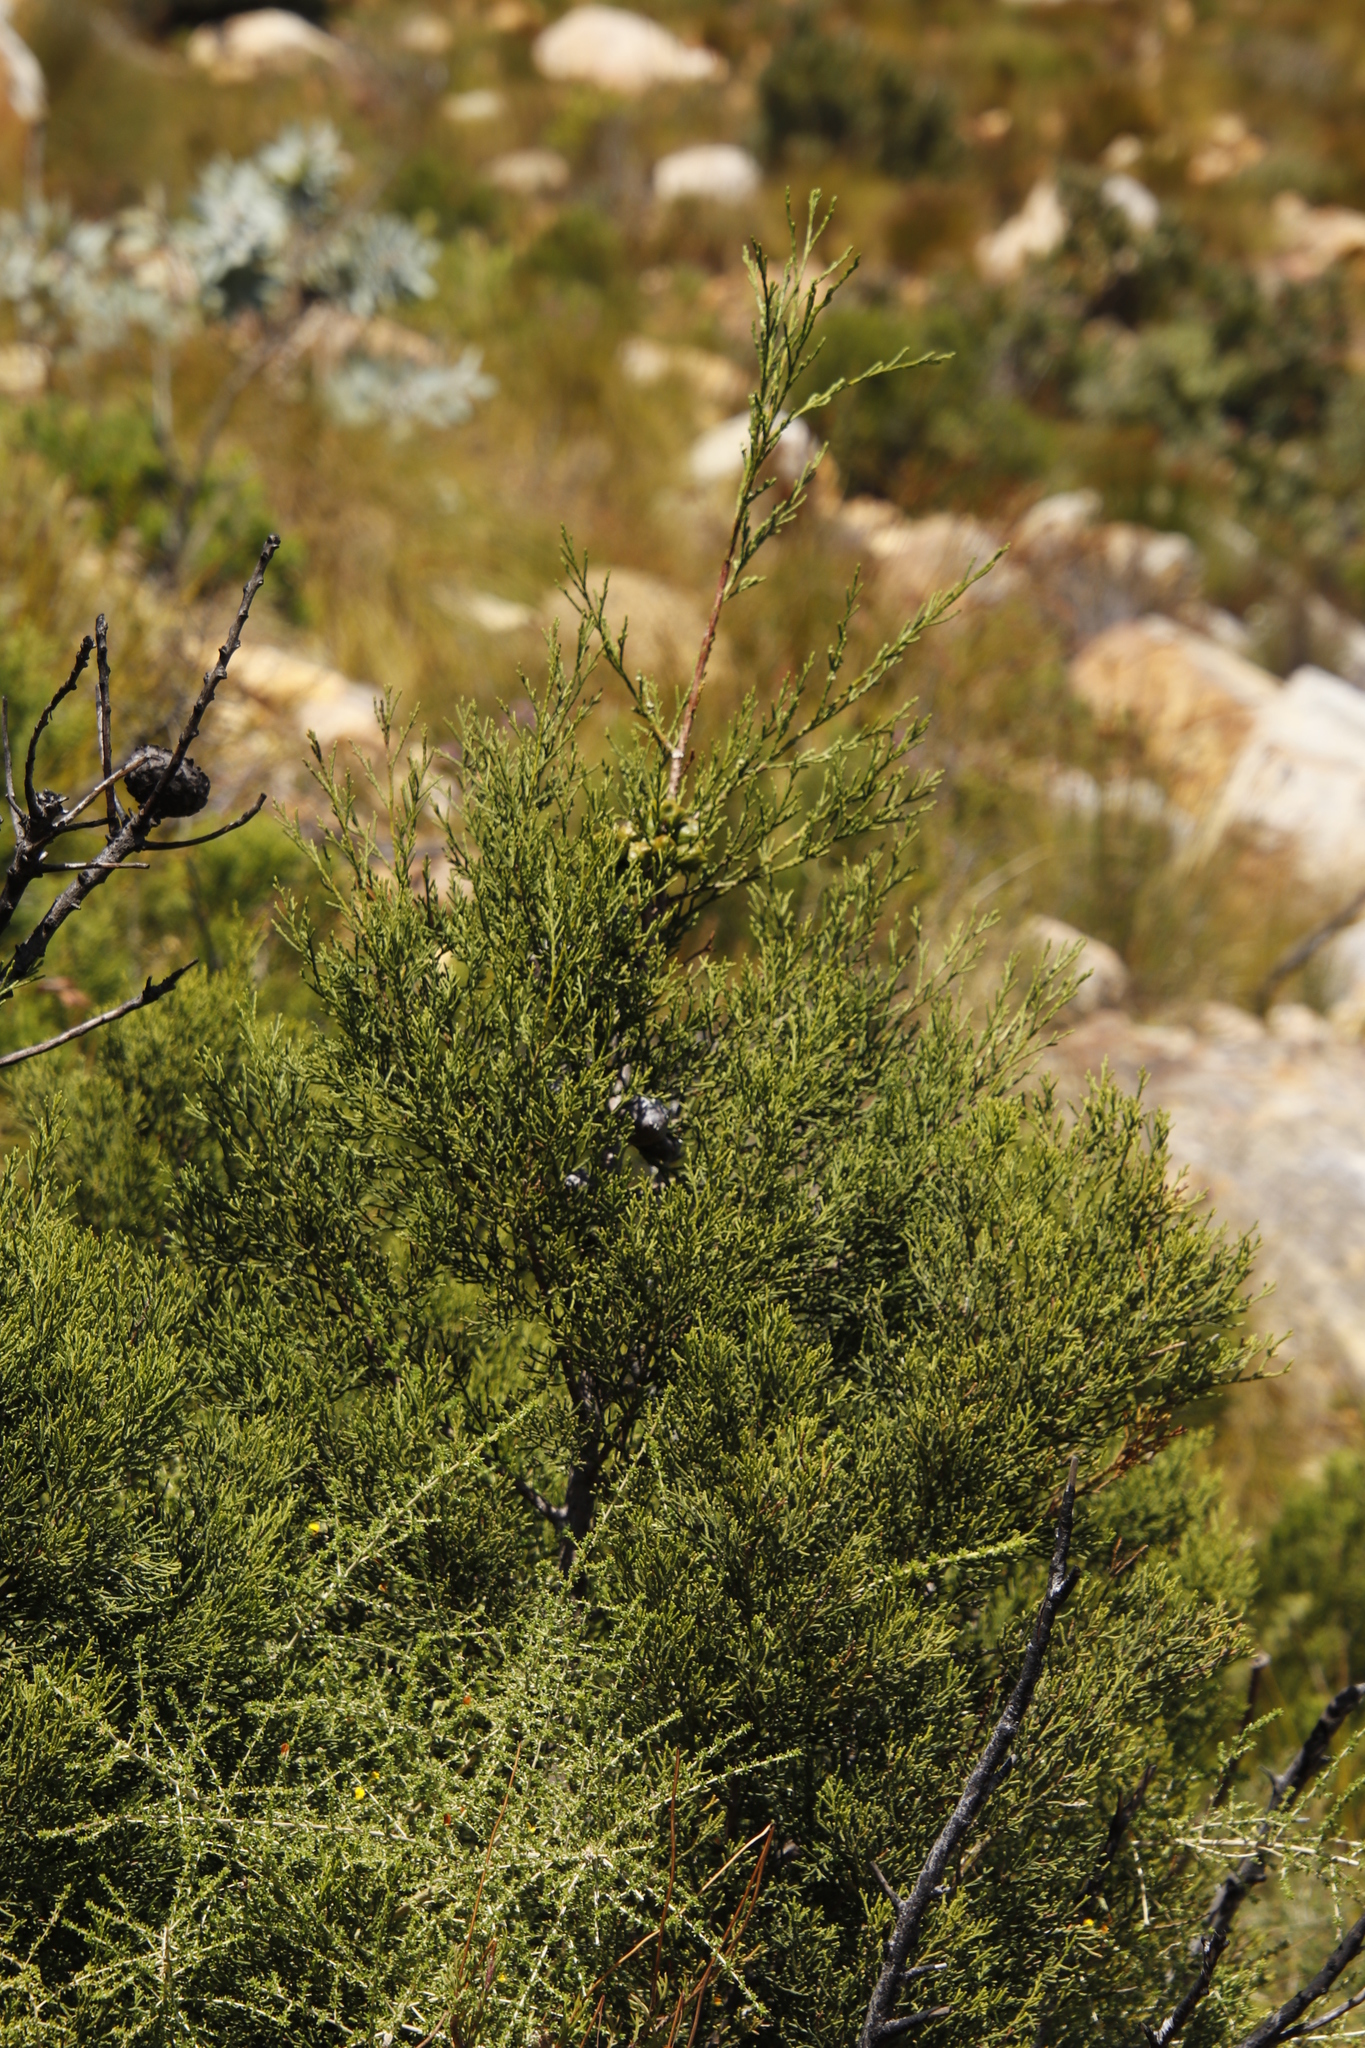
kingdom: Plantae
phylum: Tracheophyta
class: Pinopsida
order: Pinales
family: Cupressaceae
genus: Widdringtonia
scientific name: Widdringtonia nodiflora
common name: Cape cypress
